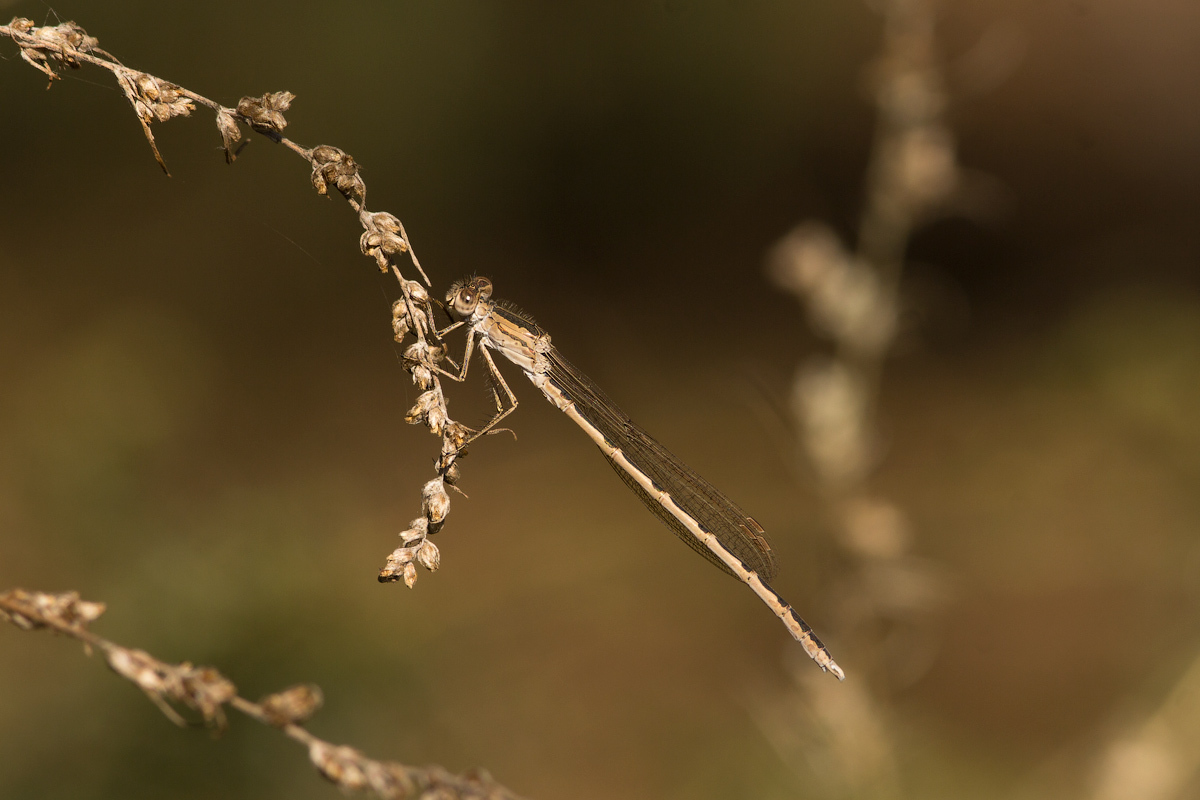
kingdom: Animalia
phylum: Arthropoda
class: Insecta
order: Odonata
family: Lestidae
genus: Sympecma
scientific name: Sympecma paedisca
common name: Siberian winter damsel
